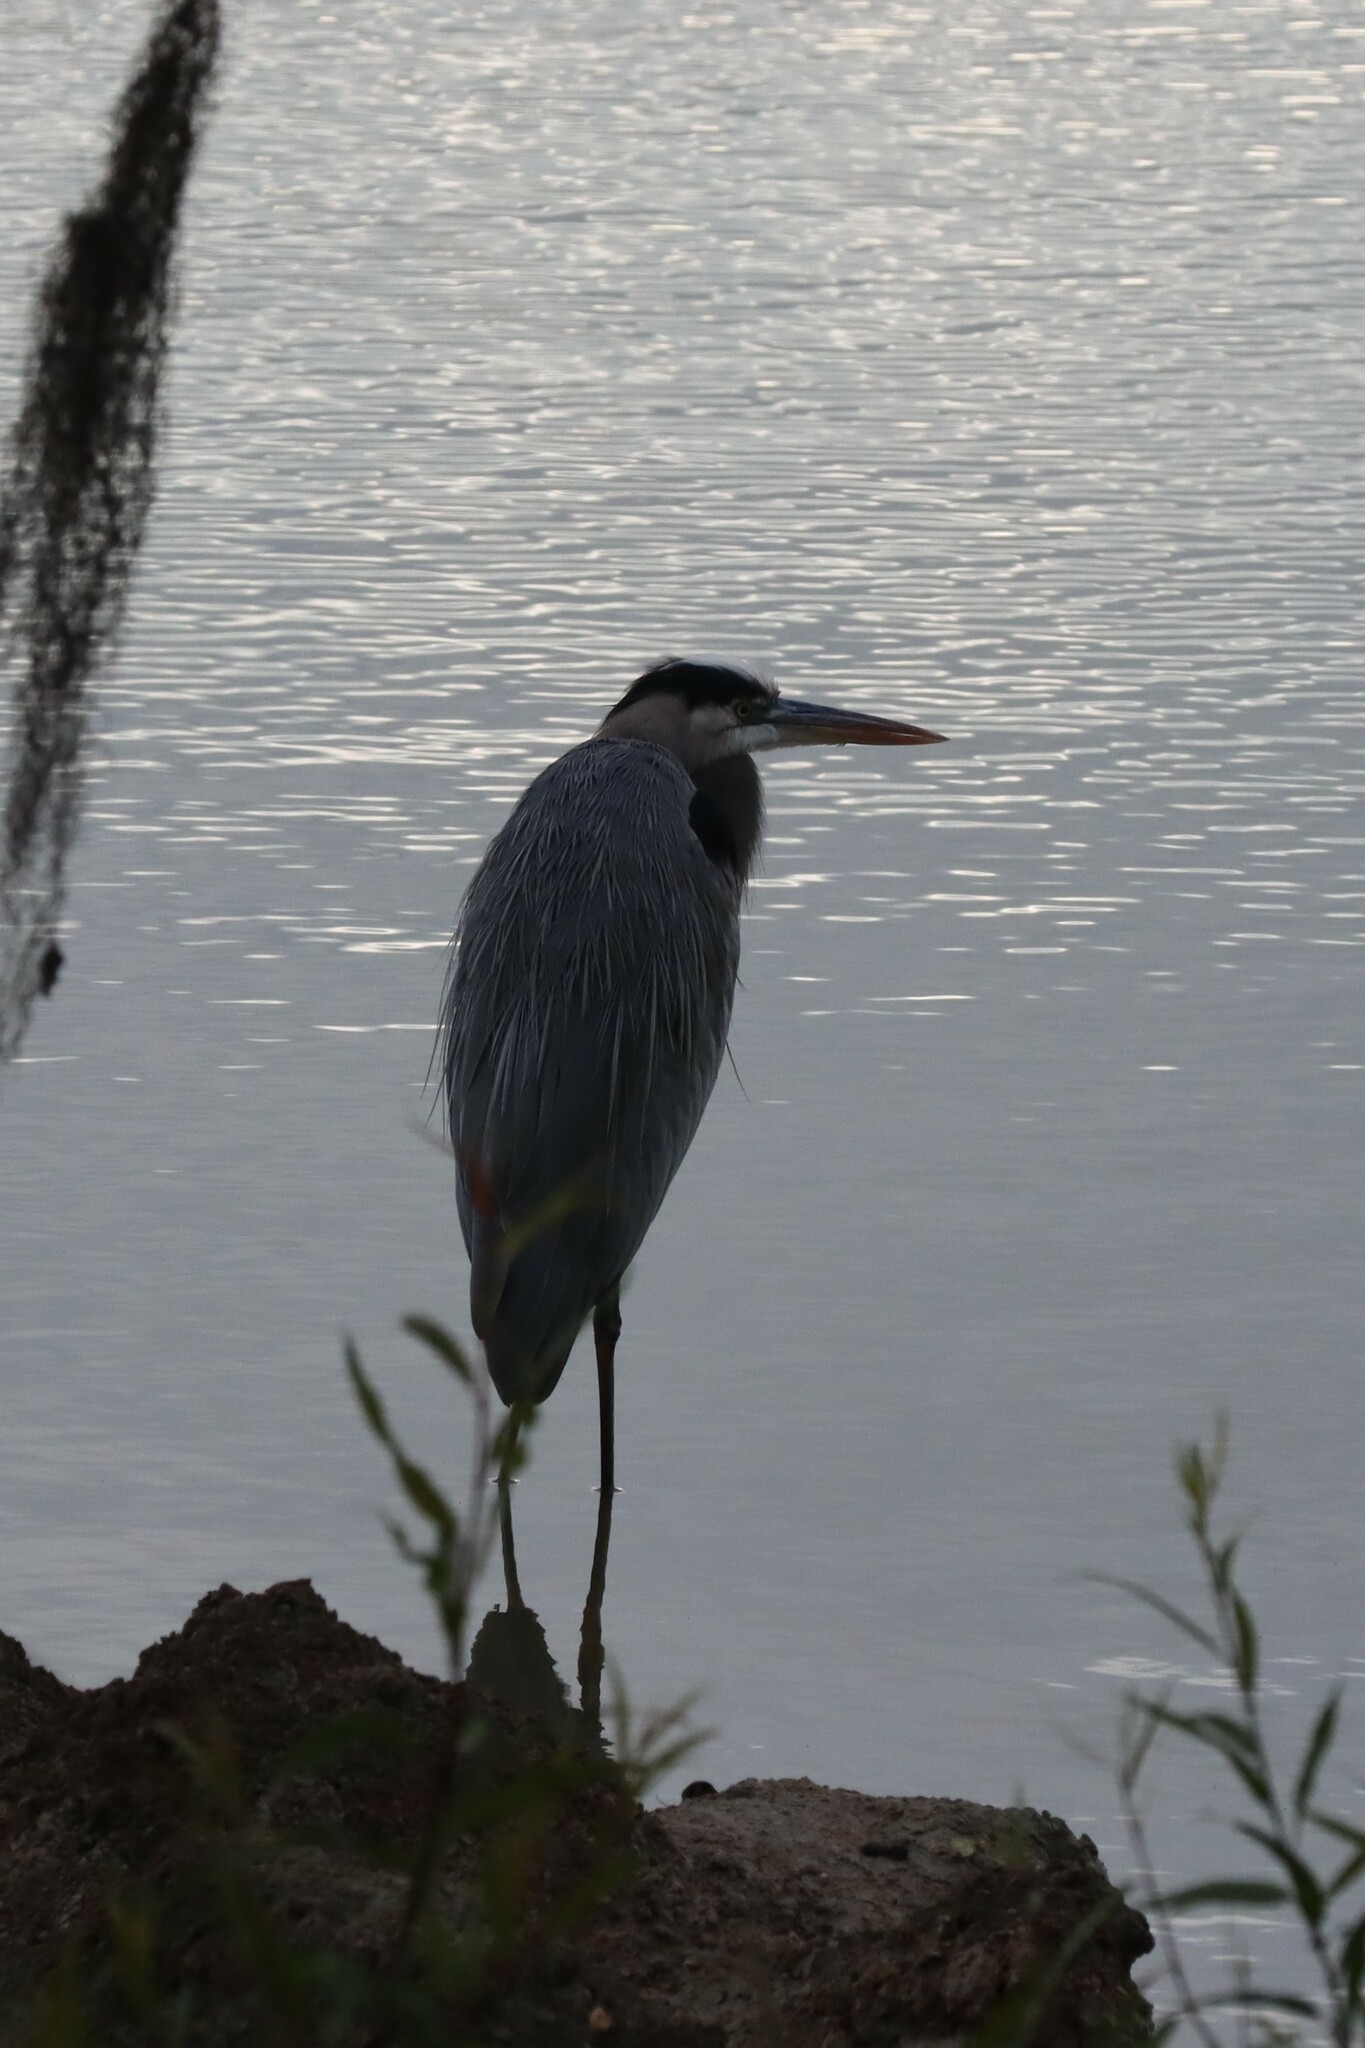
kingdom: Animalia
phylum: Chordata
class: Aves
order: Pelecaniformes
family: Ardeidae
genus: Ardea
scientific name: Ardea herodias
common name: Great blue heron
